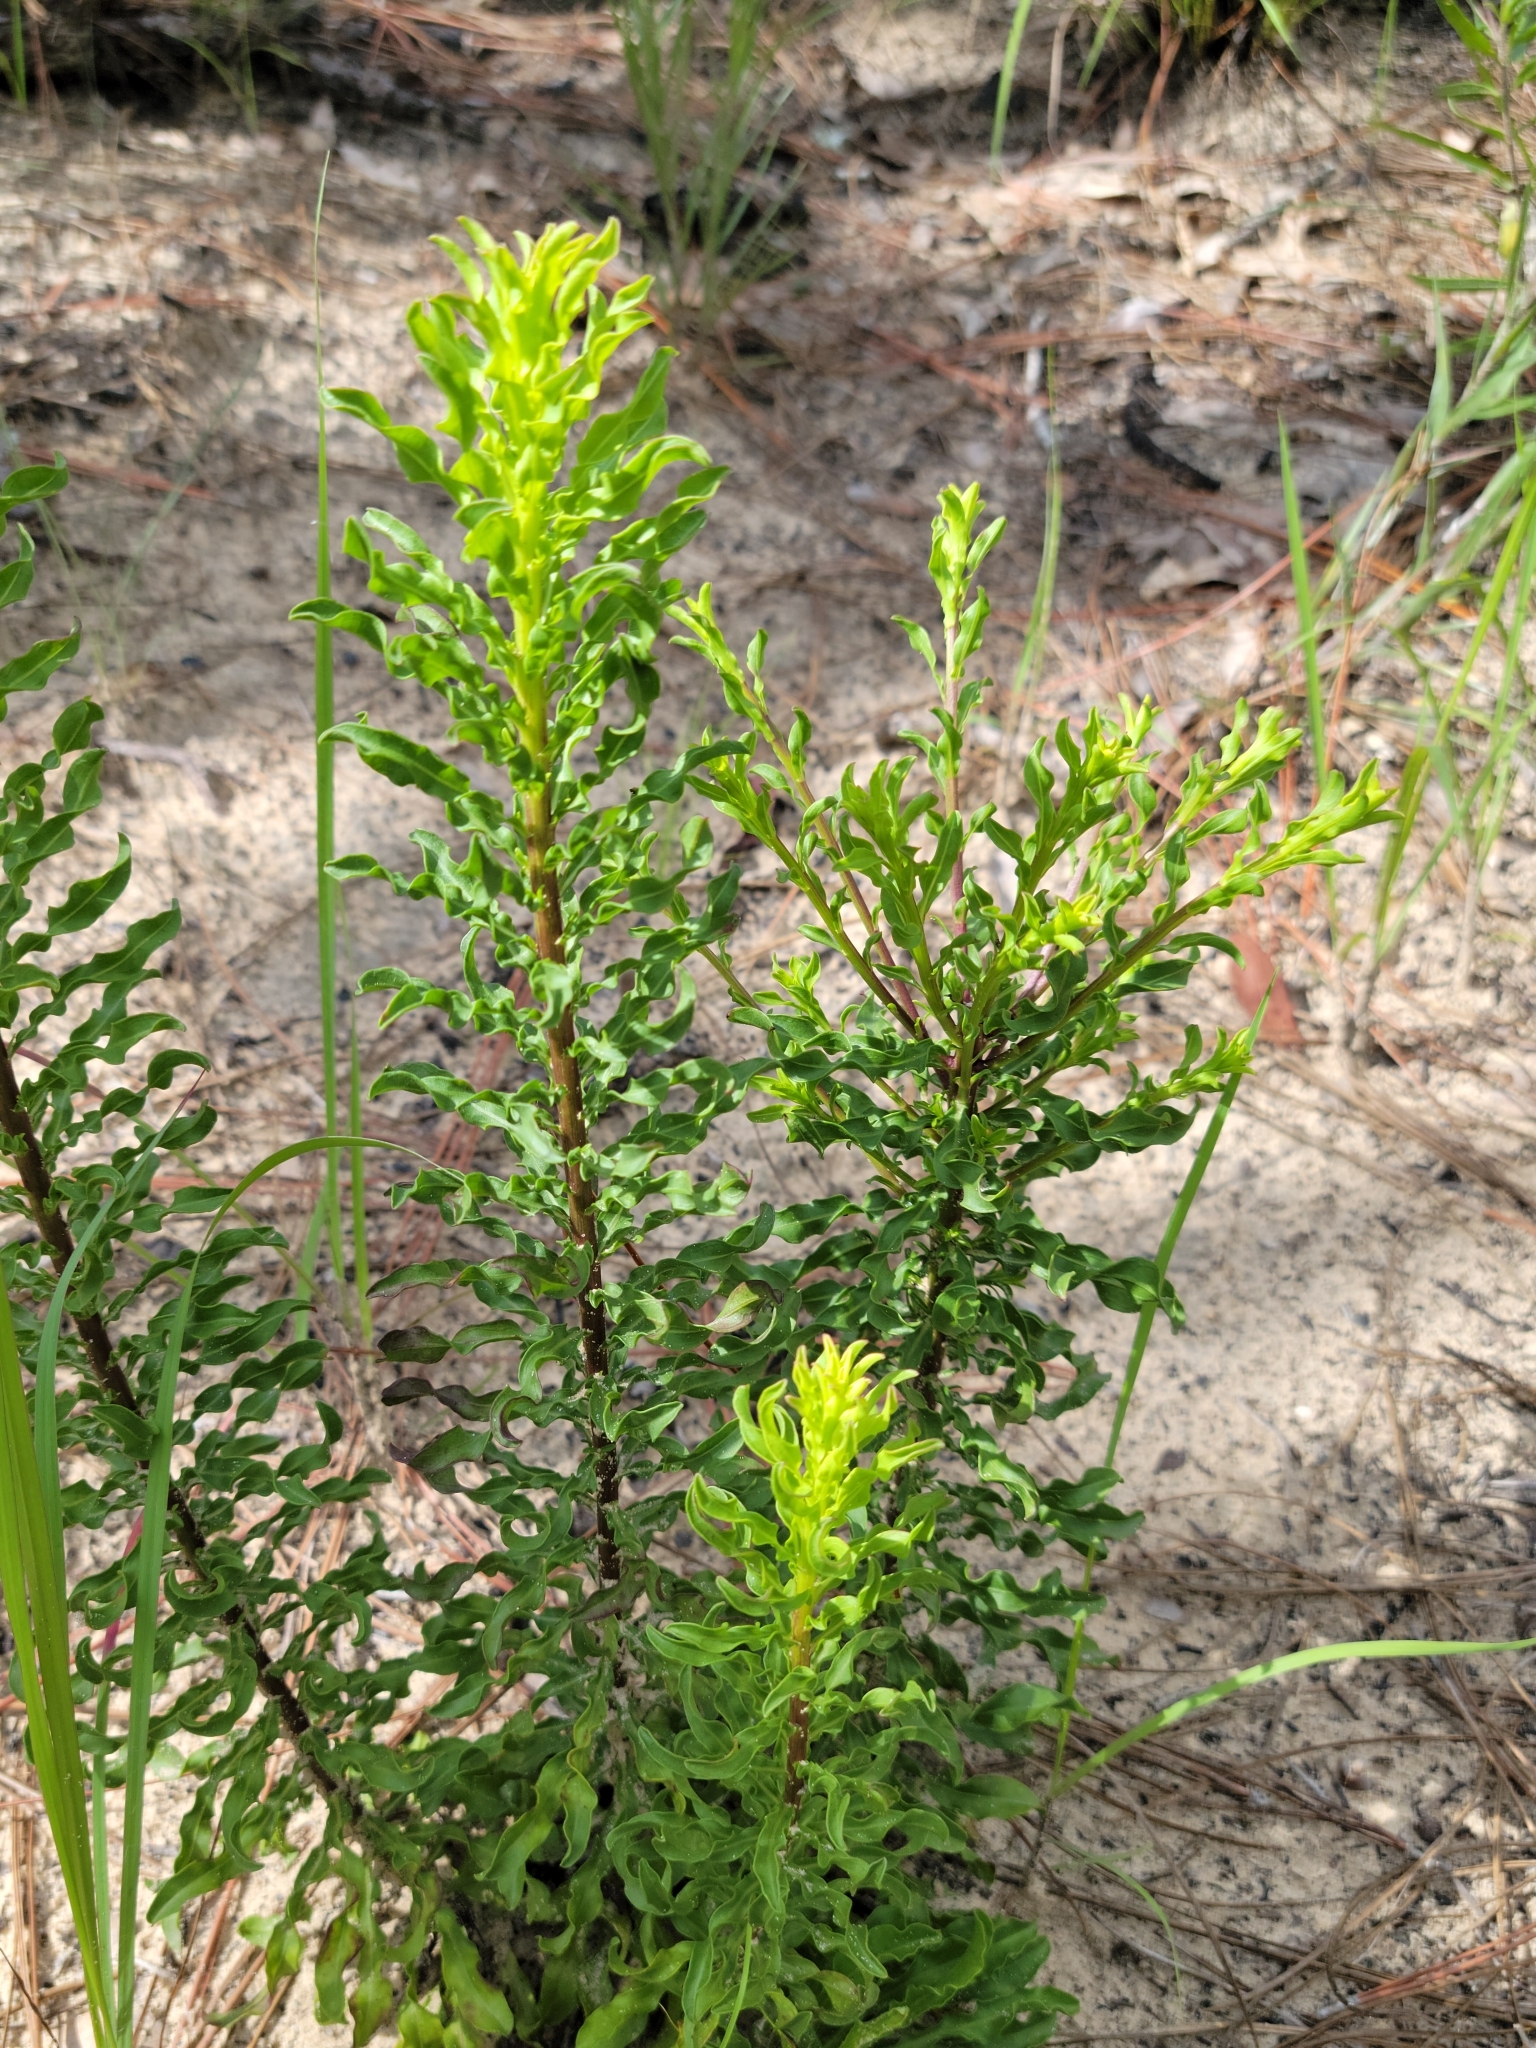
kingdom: Plantae
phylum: Tracheophyta
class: Magnoliopsida
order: Asterales
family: Asteraceae
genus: Chrysopsis
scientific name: Chrysopsis linearifolia
